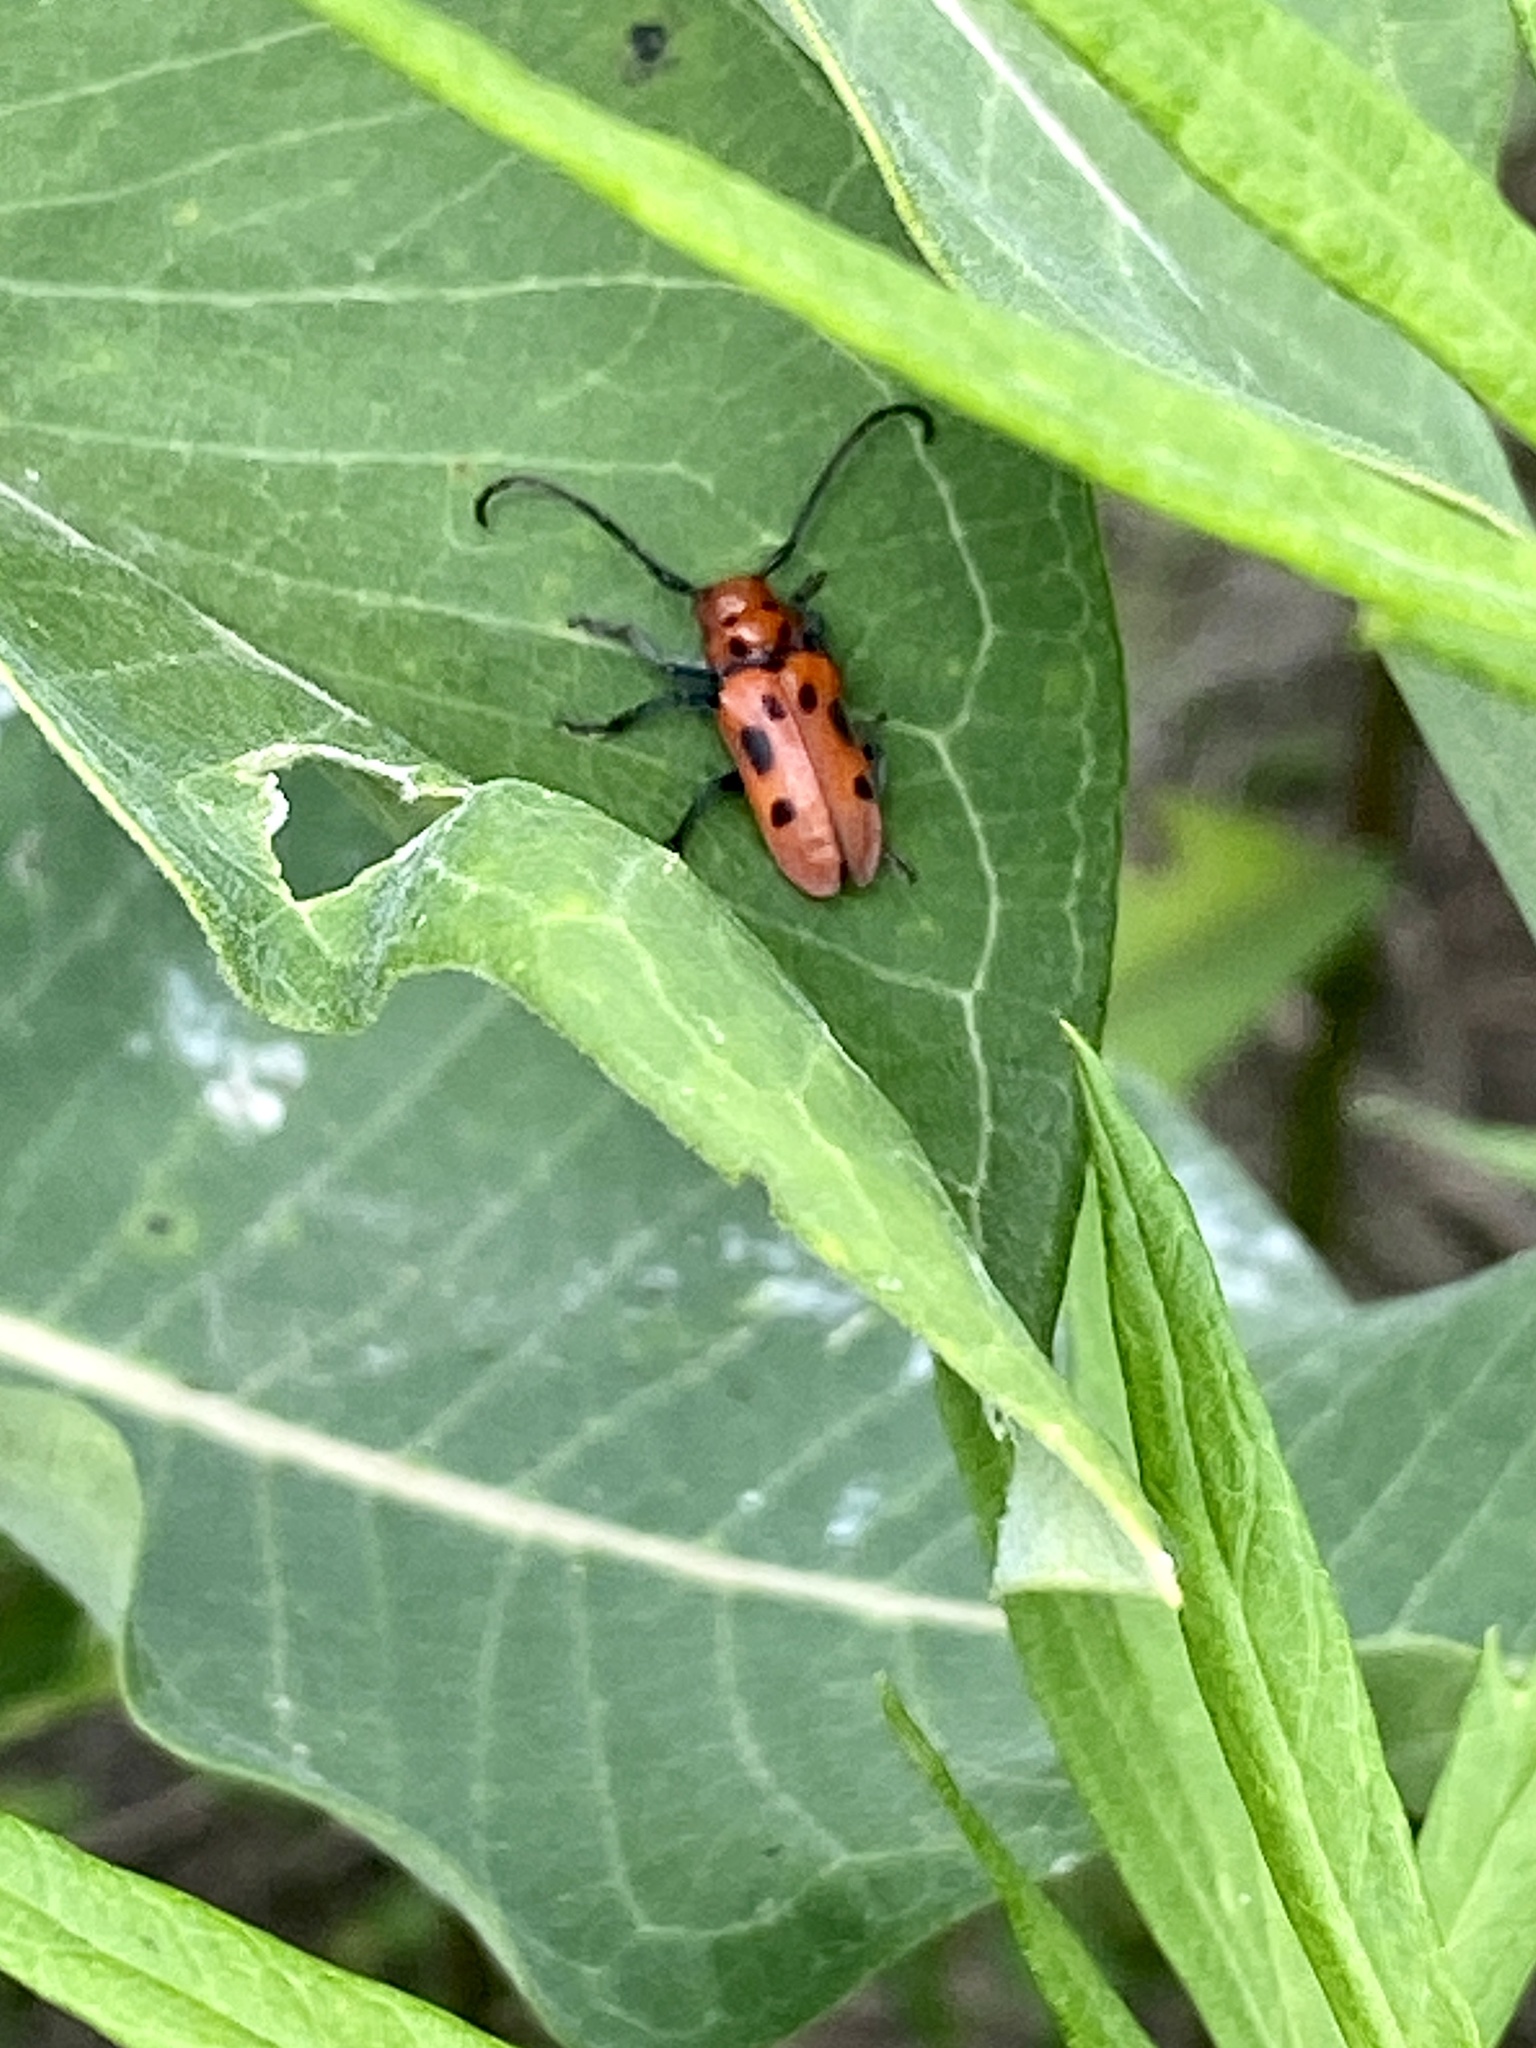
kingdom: Animalia
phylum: Arthropoda
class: Insecta
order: Coleoptera
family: Cerambycidae
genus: Tetraopes
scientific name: Tetraopes tetrophthalmus
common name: Red milkweed beetle
